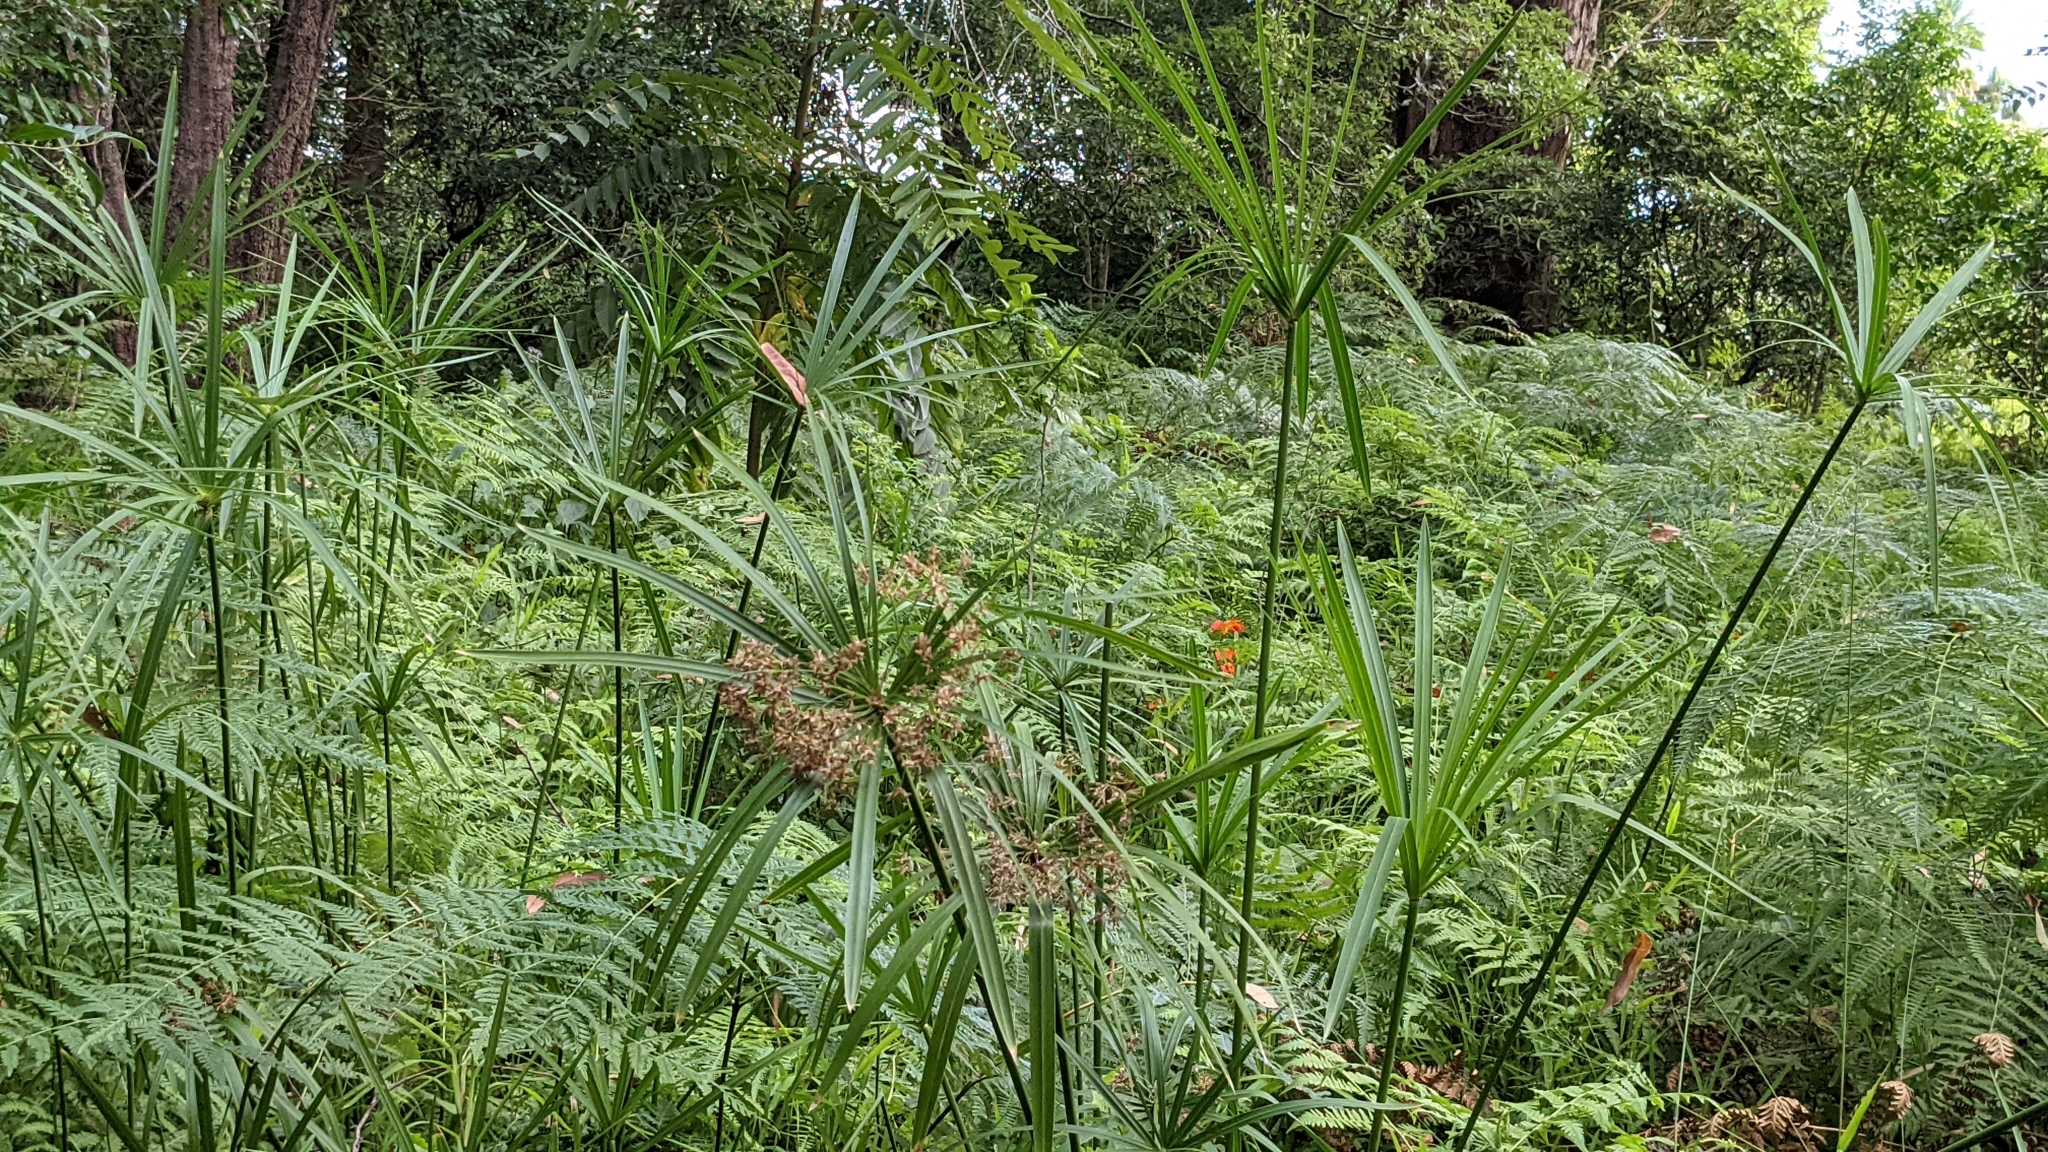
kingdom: Plantae
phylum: Tracheophyta
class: Liliopsida
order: Poales
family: Cyperaceae
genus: Cyperus
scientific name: Cyperus alternifolius
